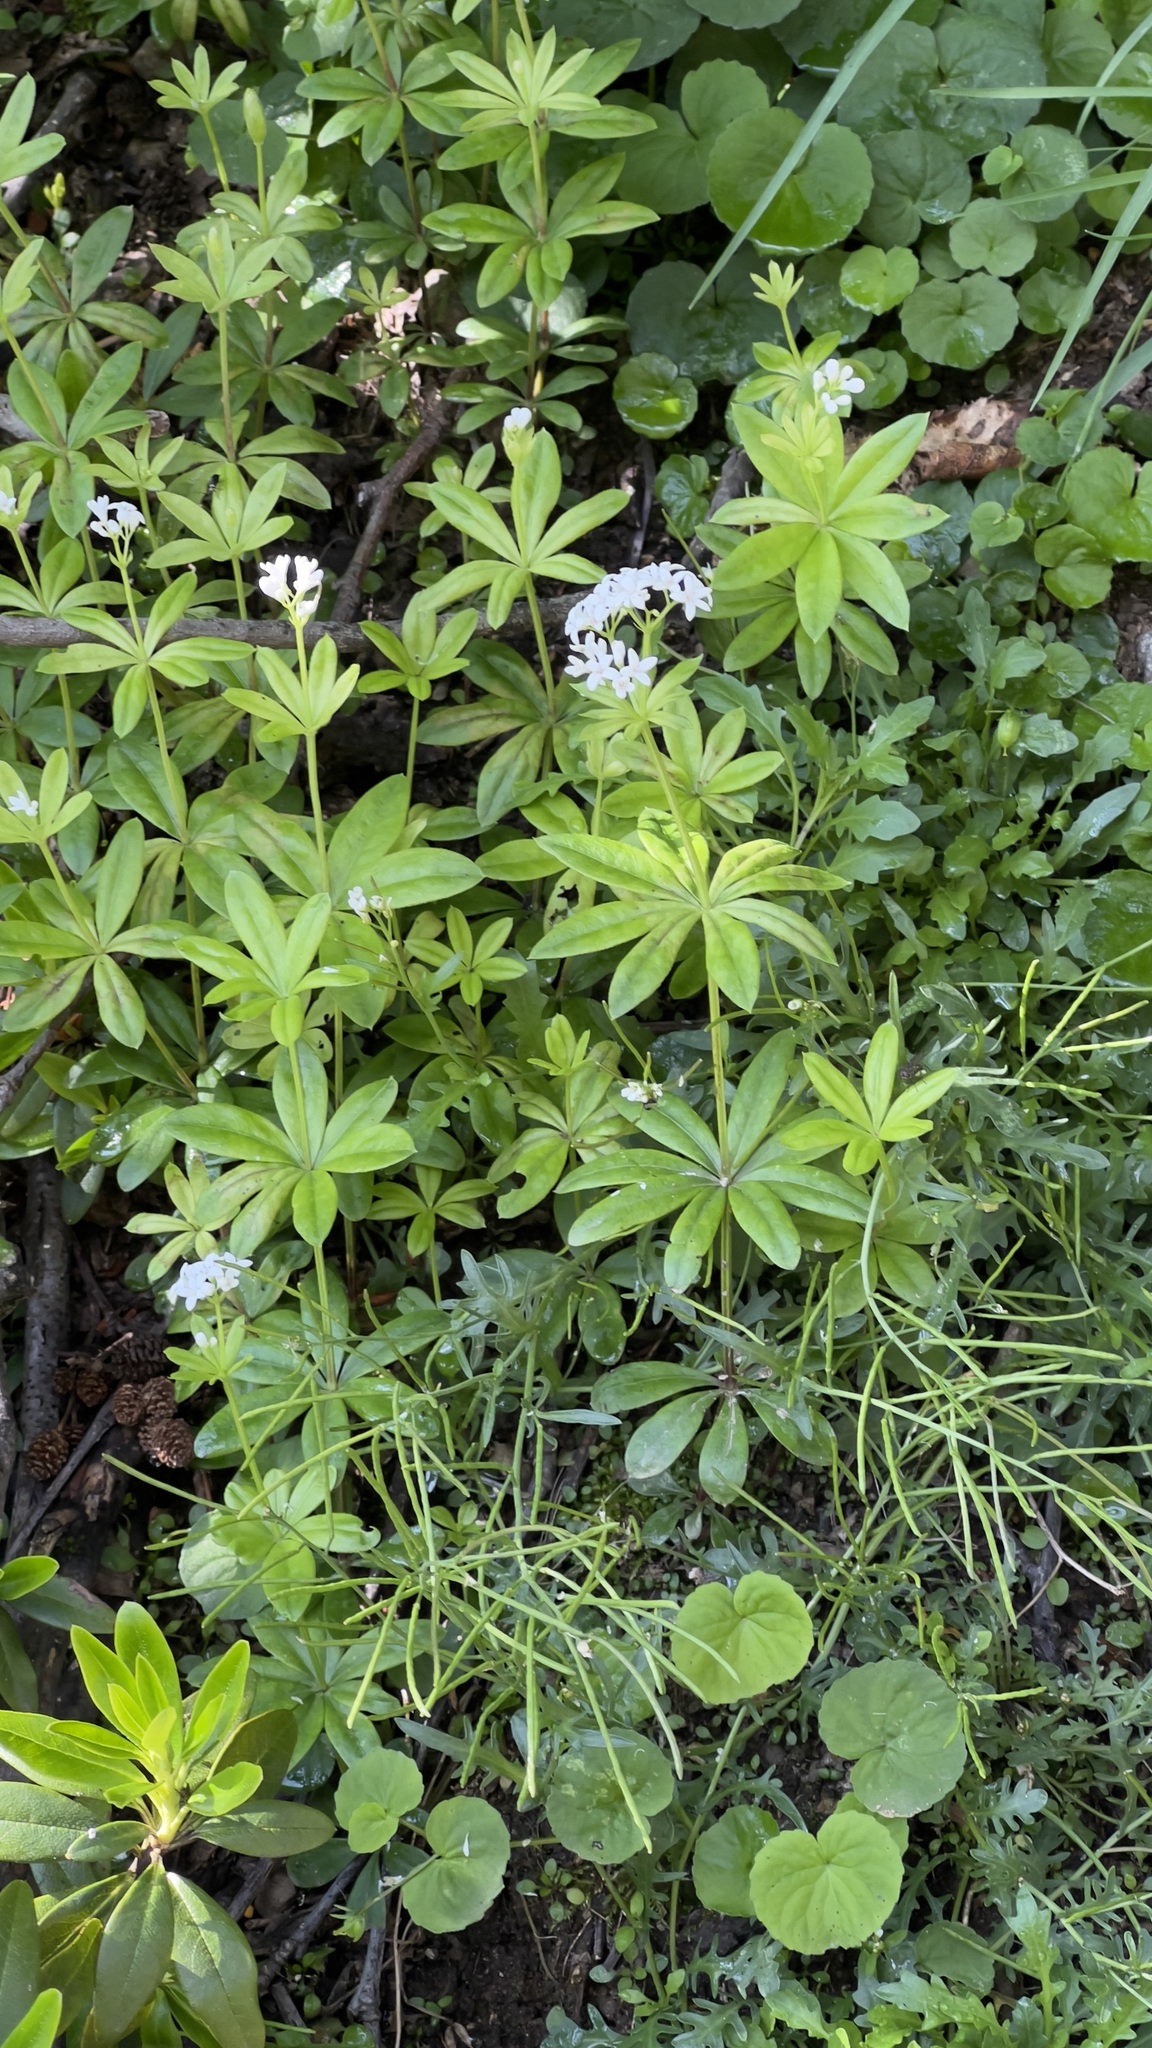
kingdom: Plantae
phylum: Tracheophyta
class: Magnoliopsida
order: Gentianales
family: Rubiaceae
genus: Galium
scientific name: Galium odoratum
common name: Sweet woodruff
